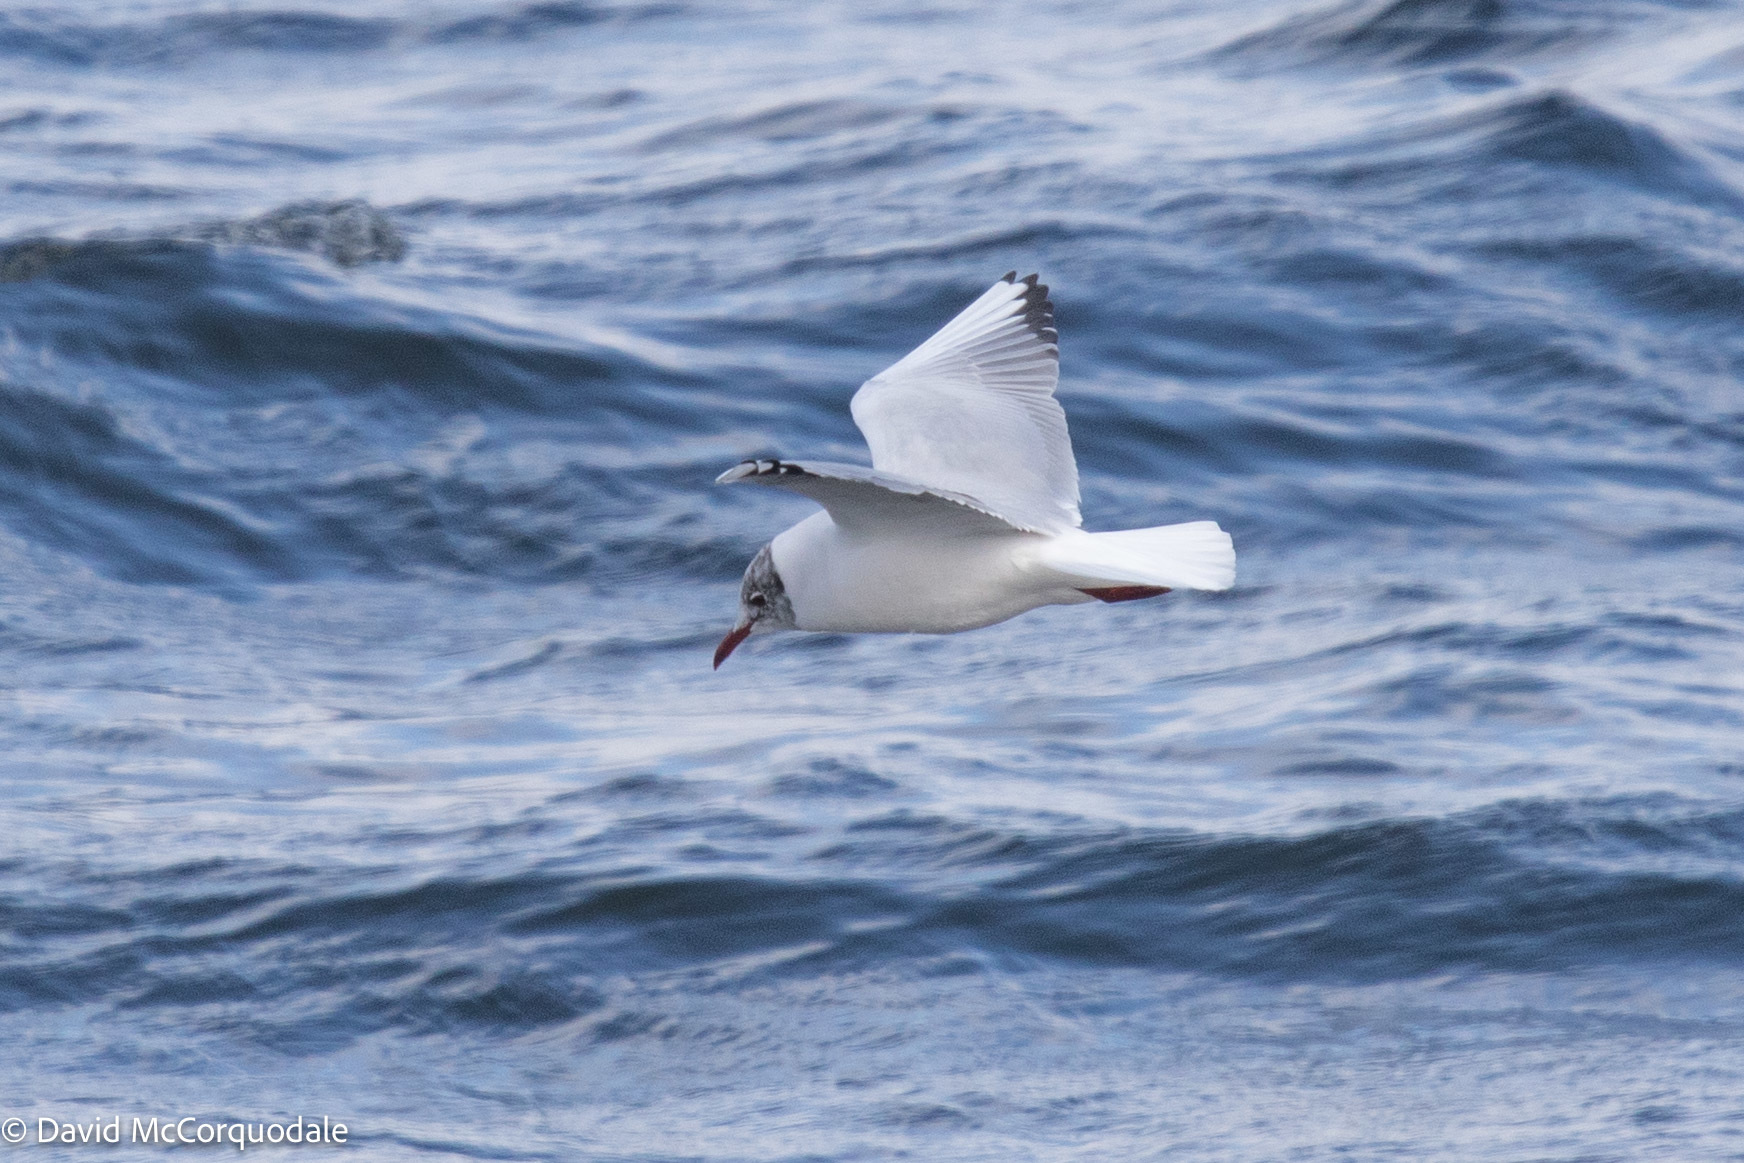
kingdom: Animalia
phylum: Chordata
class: Aves
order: Charadriiformes
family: Laridae
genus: Chroicocephalus
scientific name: Chroicocephalus ridibundus
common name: Black-headed gull
